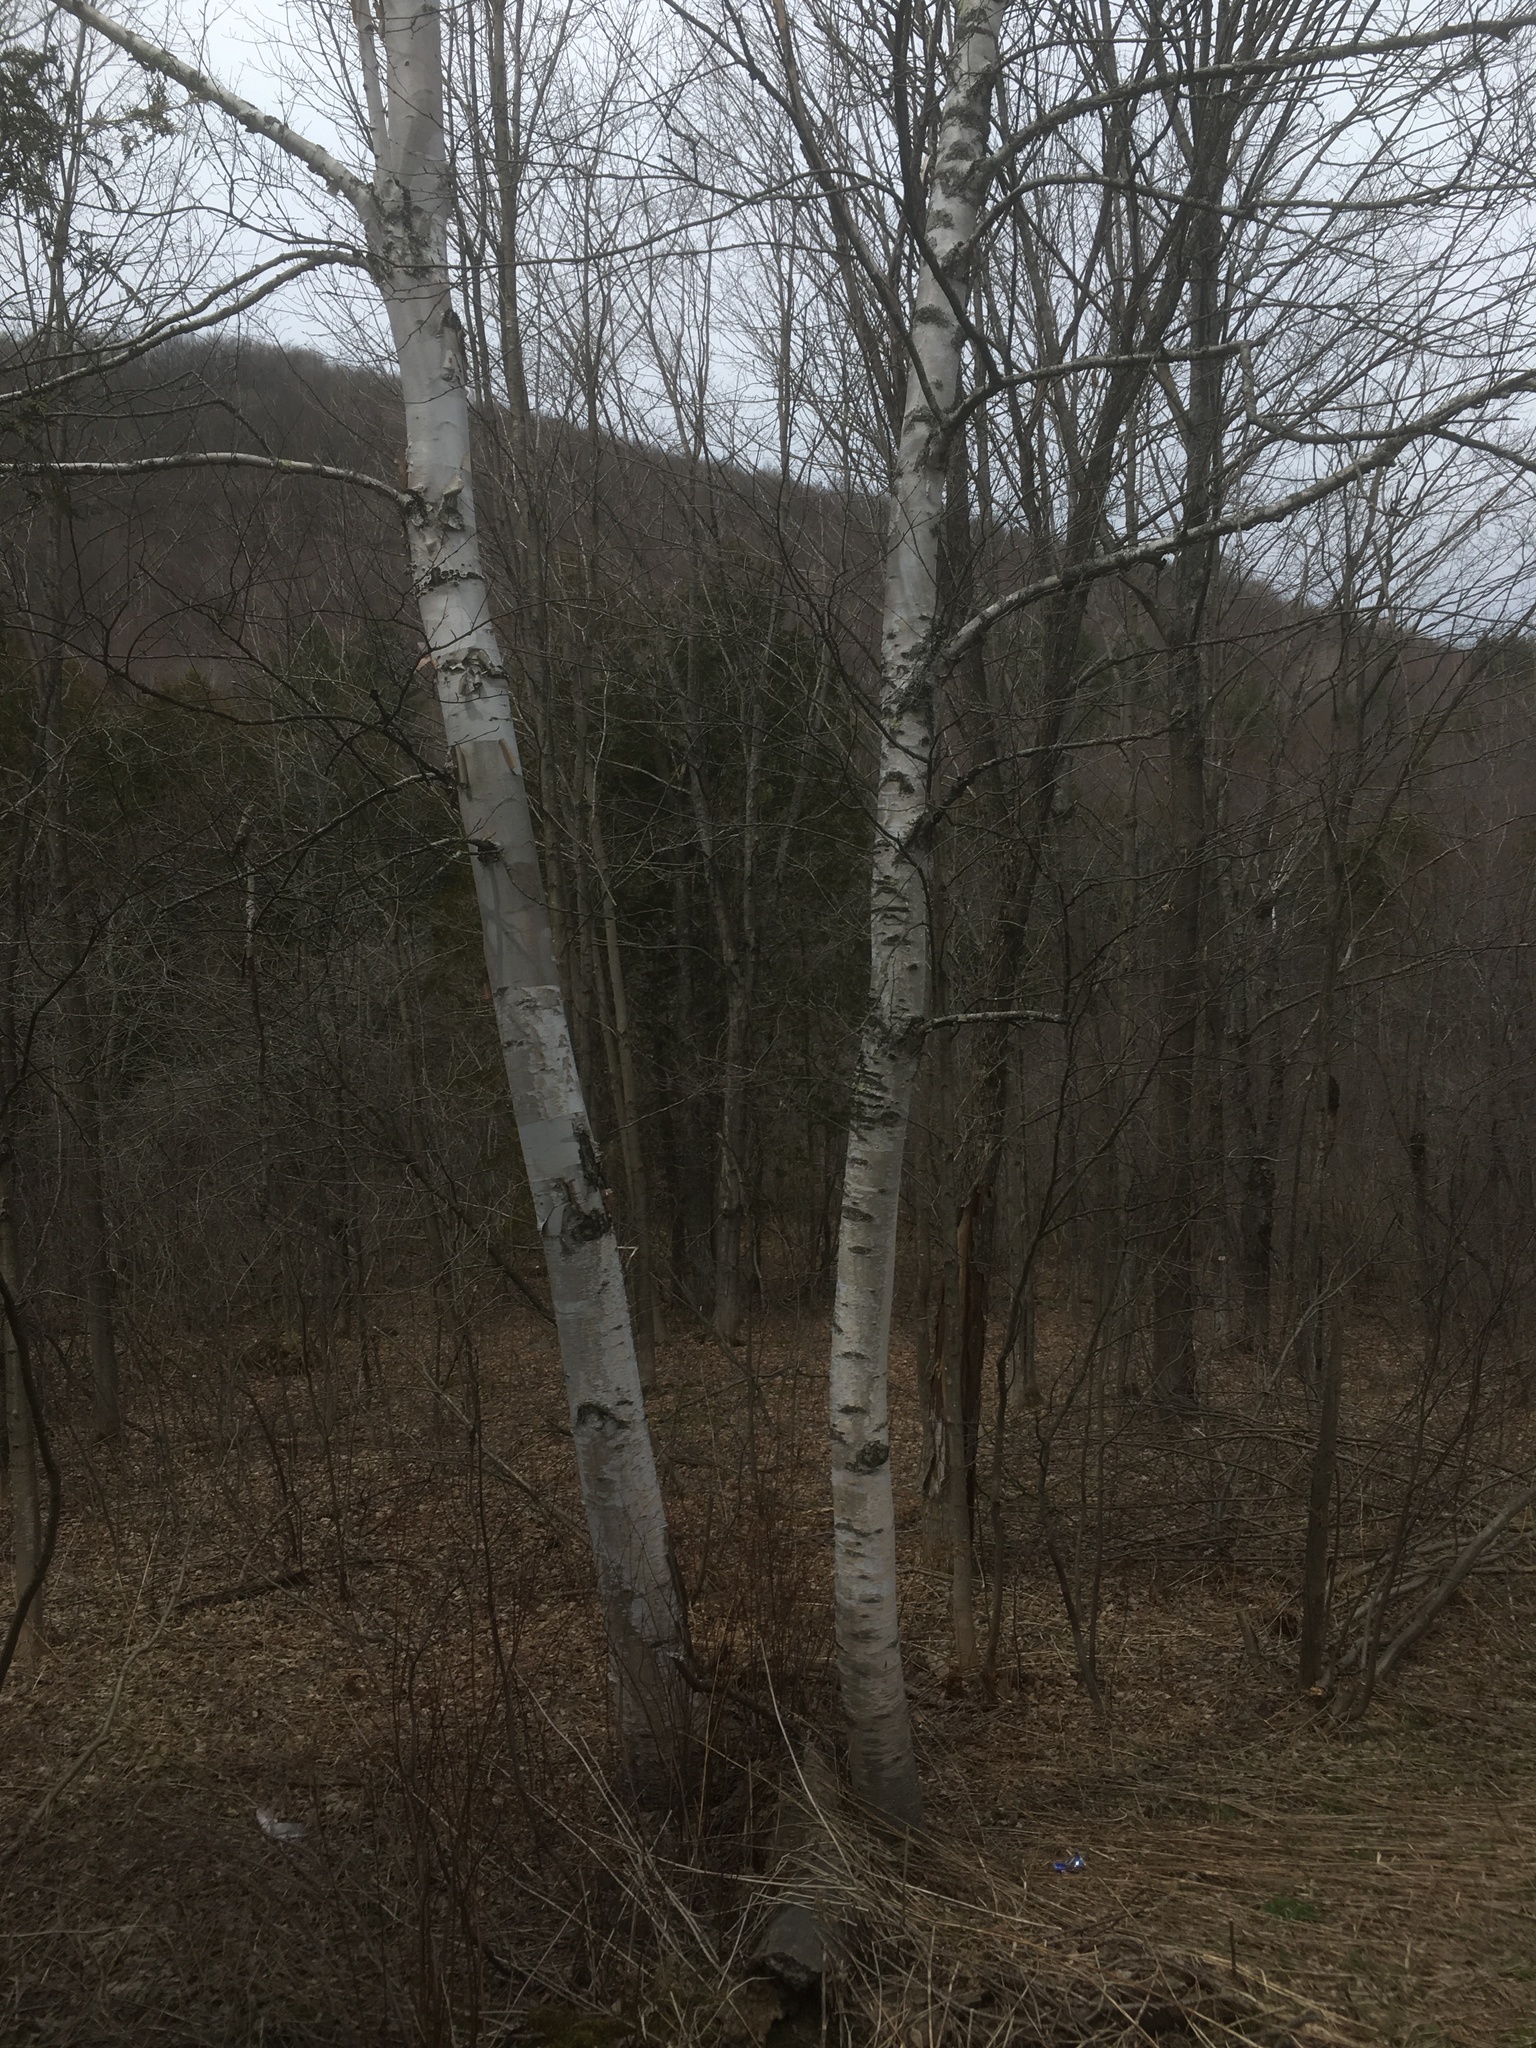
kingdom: Plantae
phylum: Tracheophyta
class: Magnoliopsida
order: Fagales
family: Betulaceae
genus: Betula
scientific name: Betula papyrifera
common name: Paper birch
